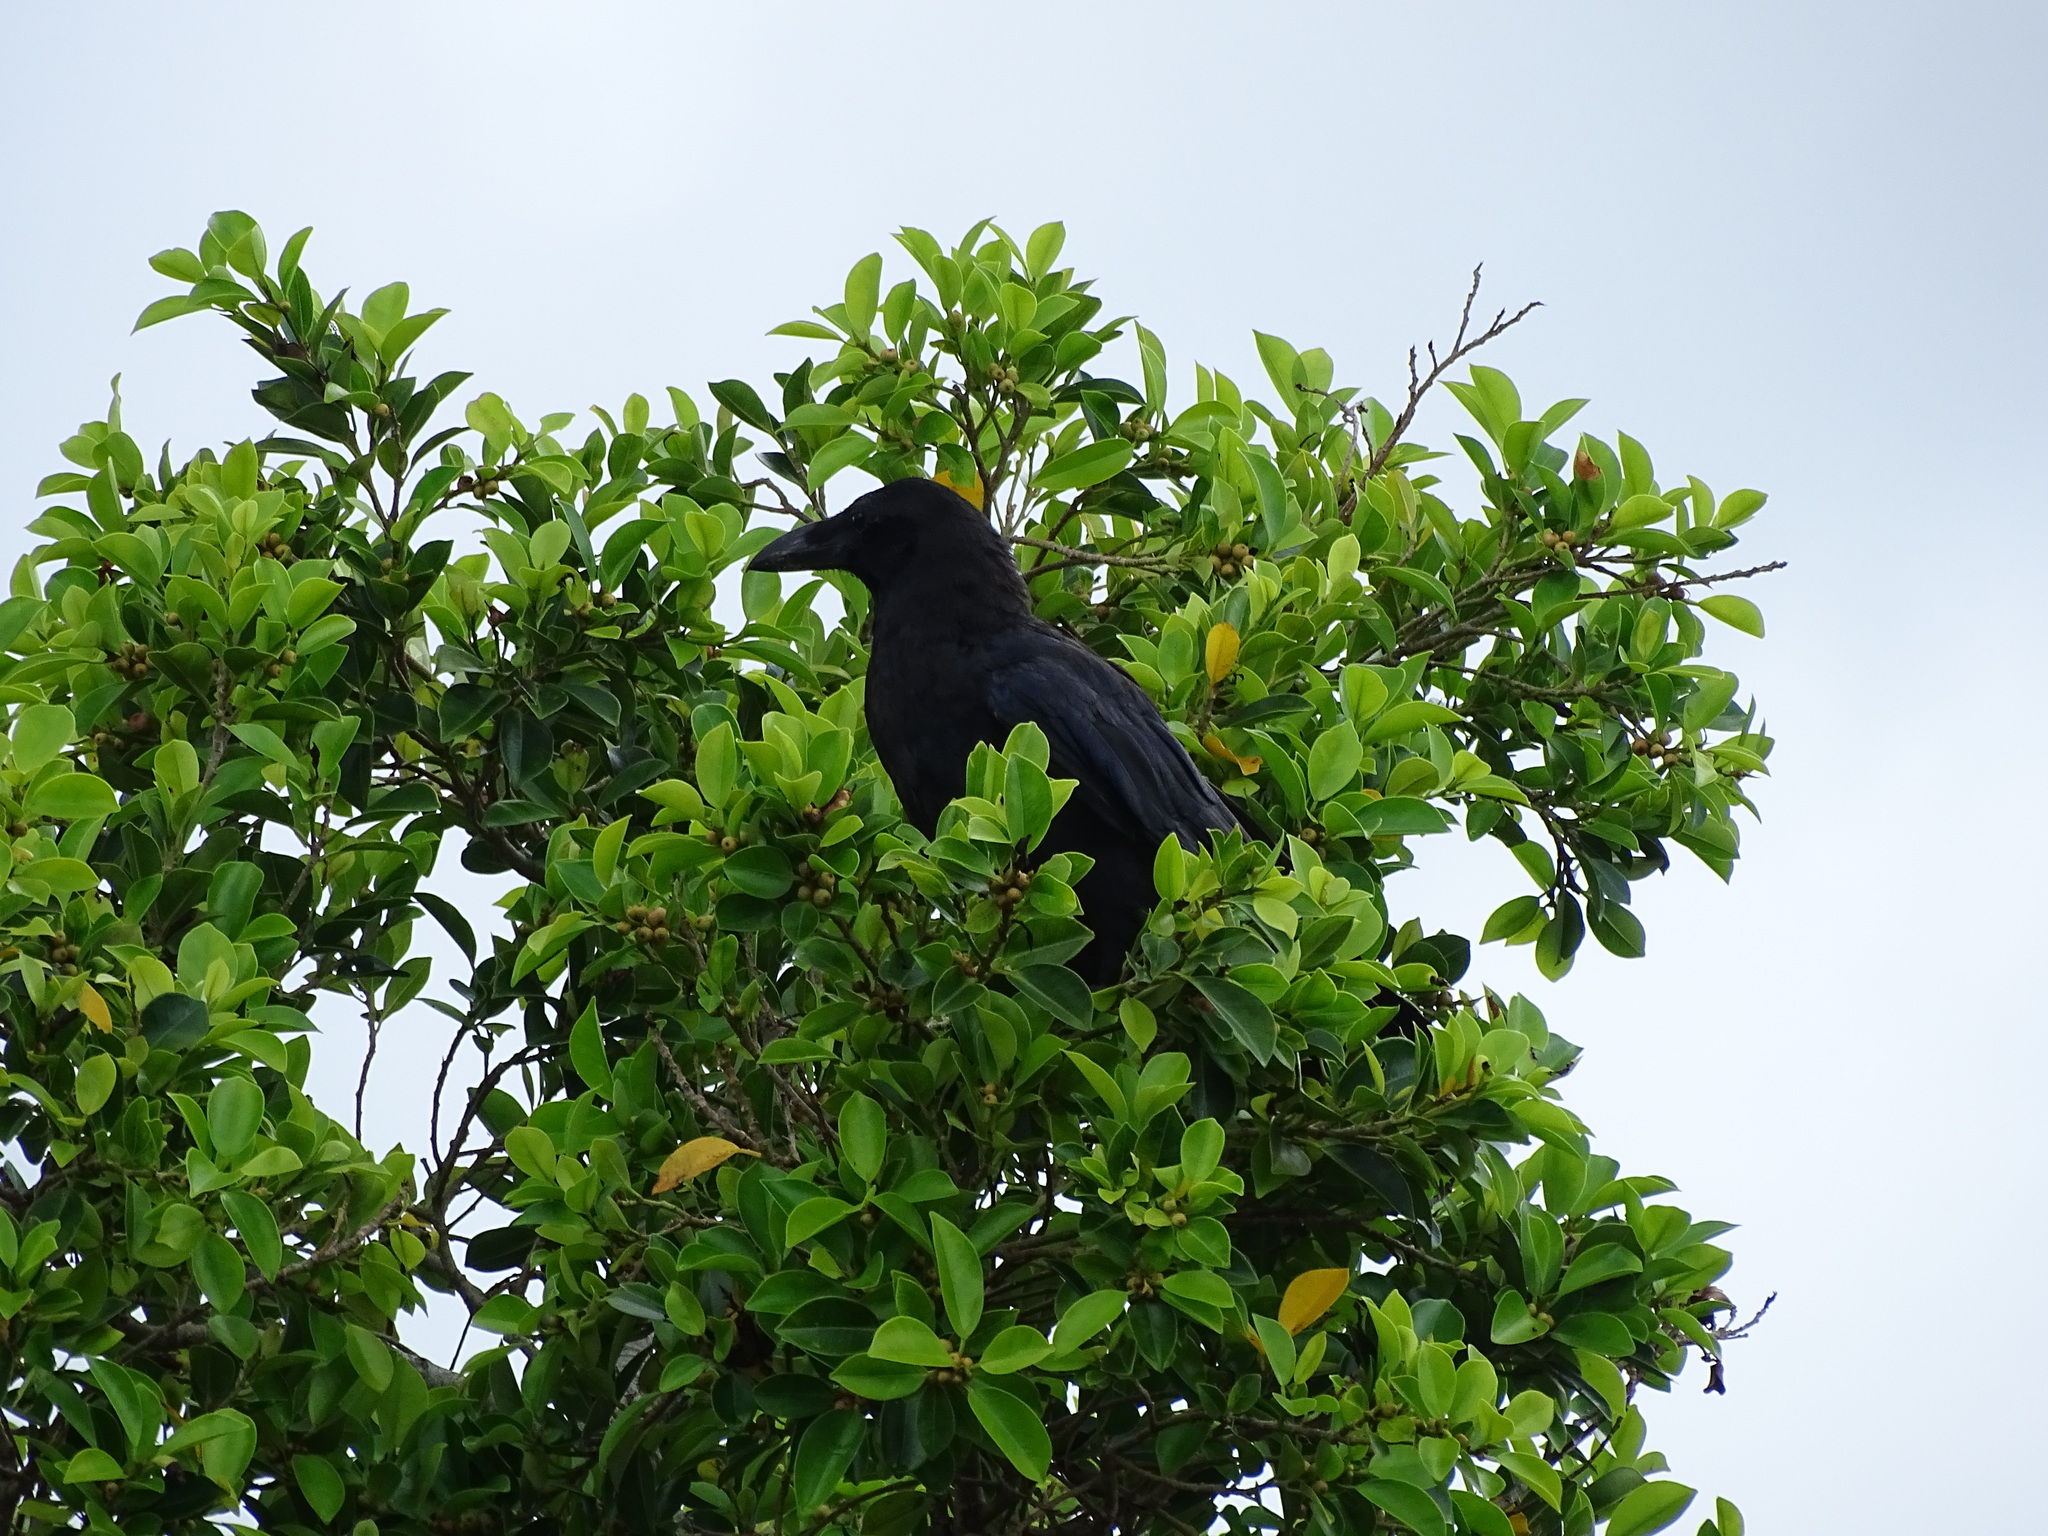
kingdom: Animalia
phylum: Chordata
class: Aves
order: Passeriformes
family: Corvidae
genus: Corvus
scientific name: Corvus macrorhynchos
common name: Large-billed crow
